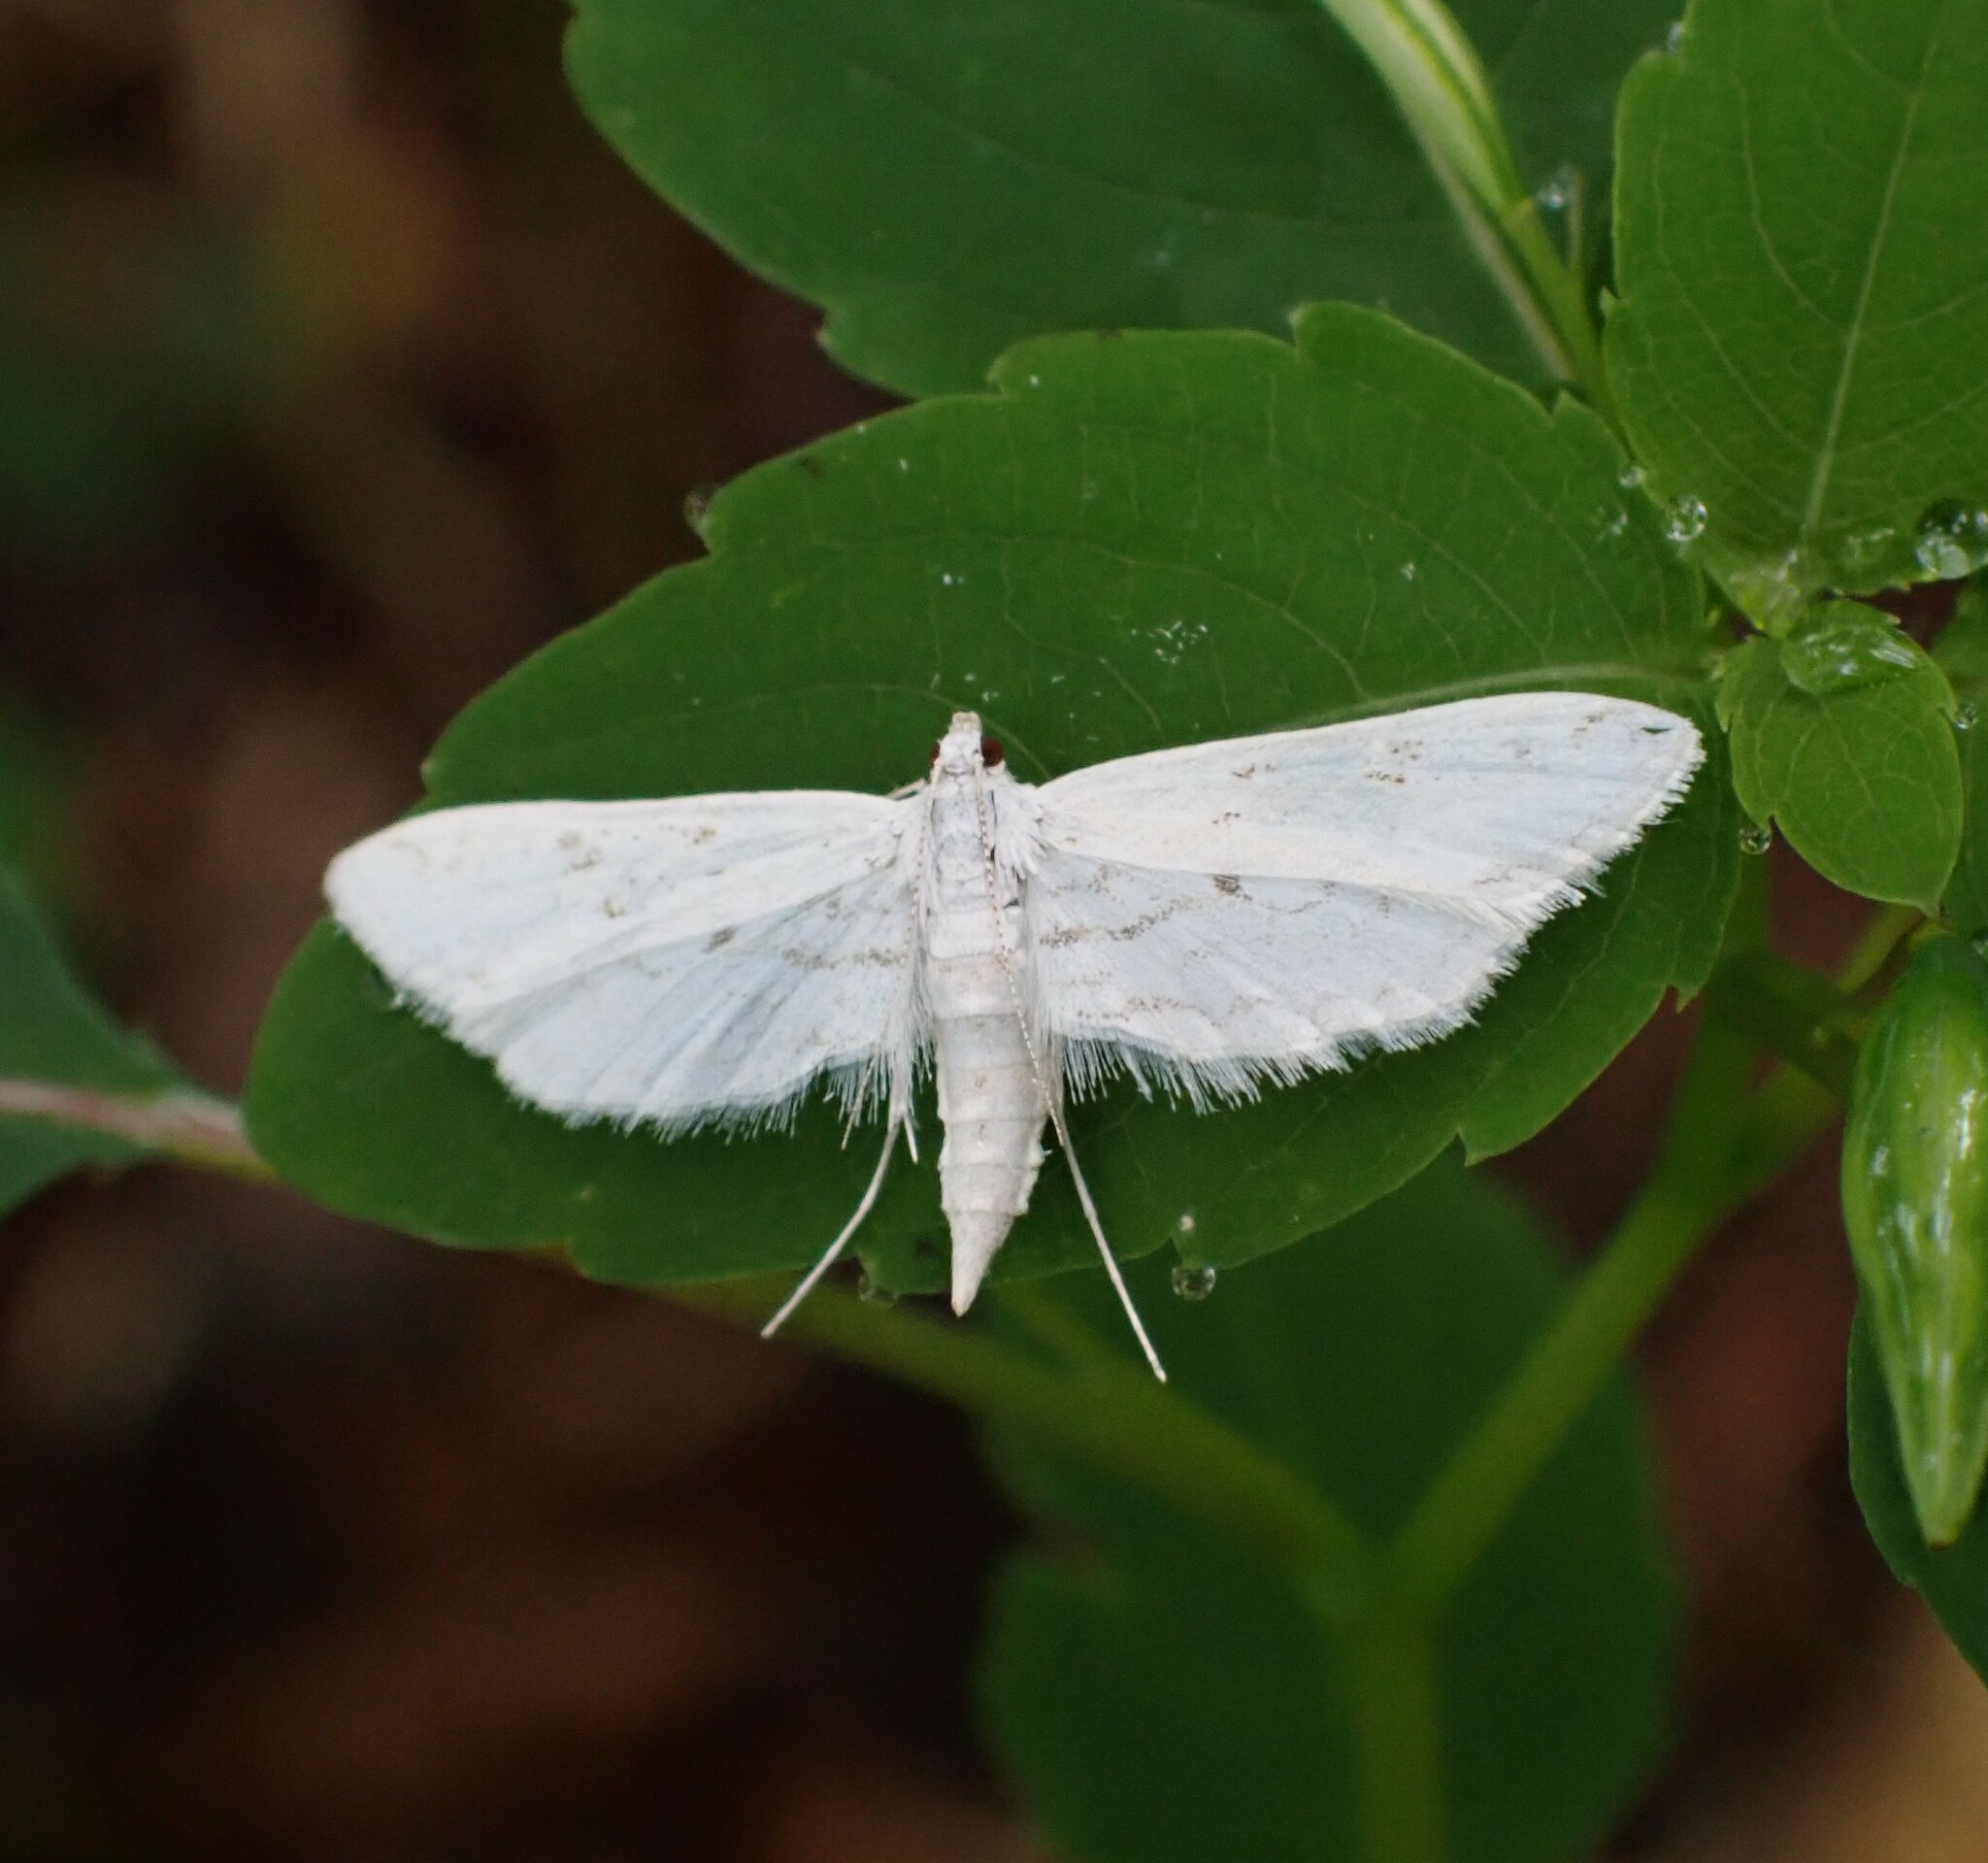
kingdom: Animalia
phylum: Arthropoda
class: Insecta
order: Lepidoptera
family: Crambidae
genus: Parapoynx
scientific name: Parapoynx allionealis
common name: Bladderwort casemaker
